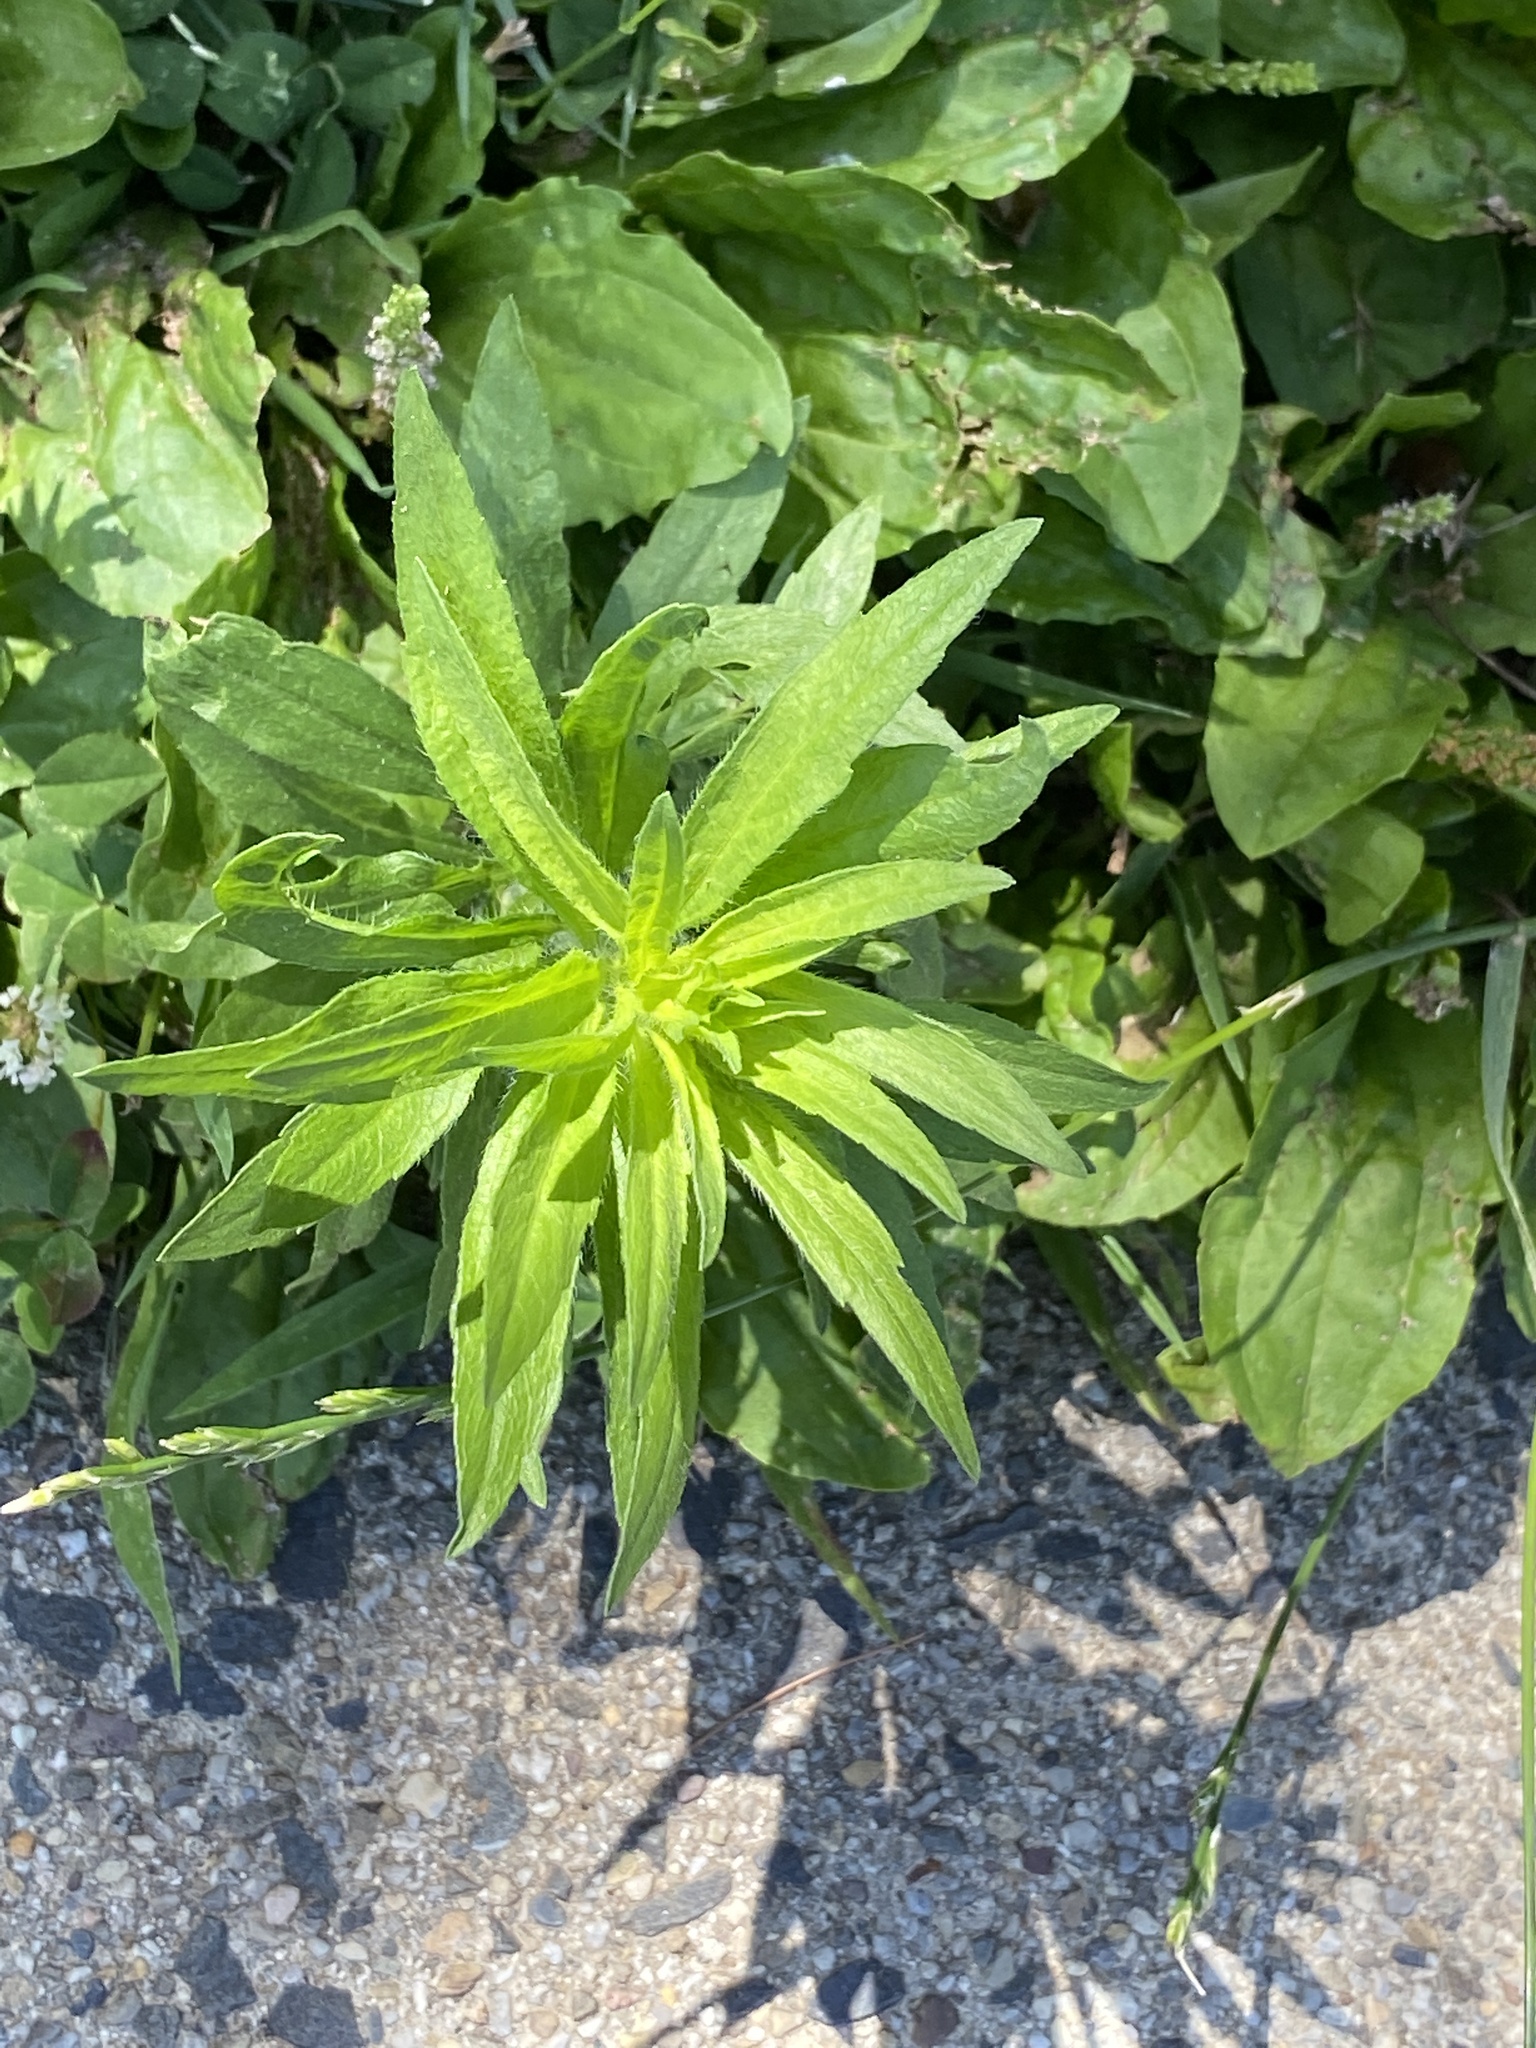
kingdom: Plantae
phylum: Tracheophyta
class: Magnoliopsida
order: Asterales
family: Asteraceae
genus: Erigeron
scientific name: Erigeron canadensis
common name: Canadian fleabane
